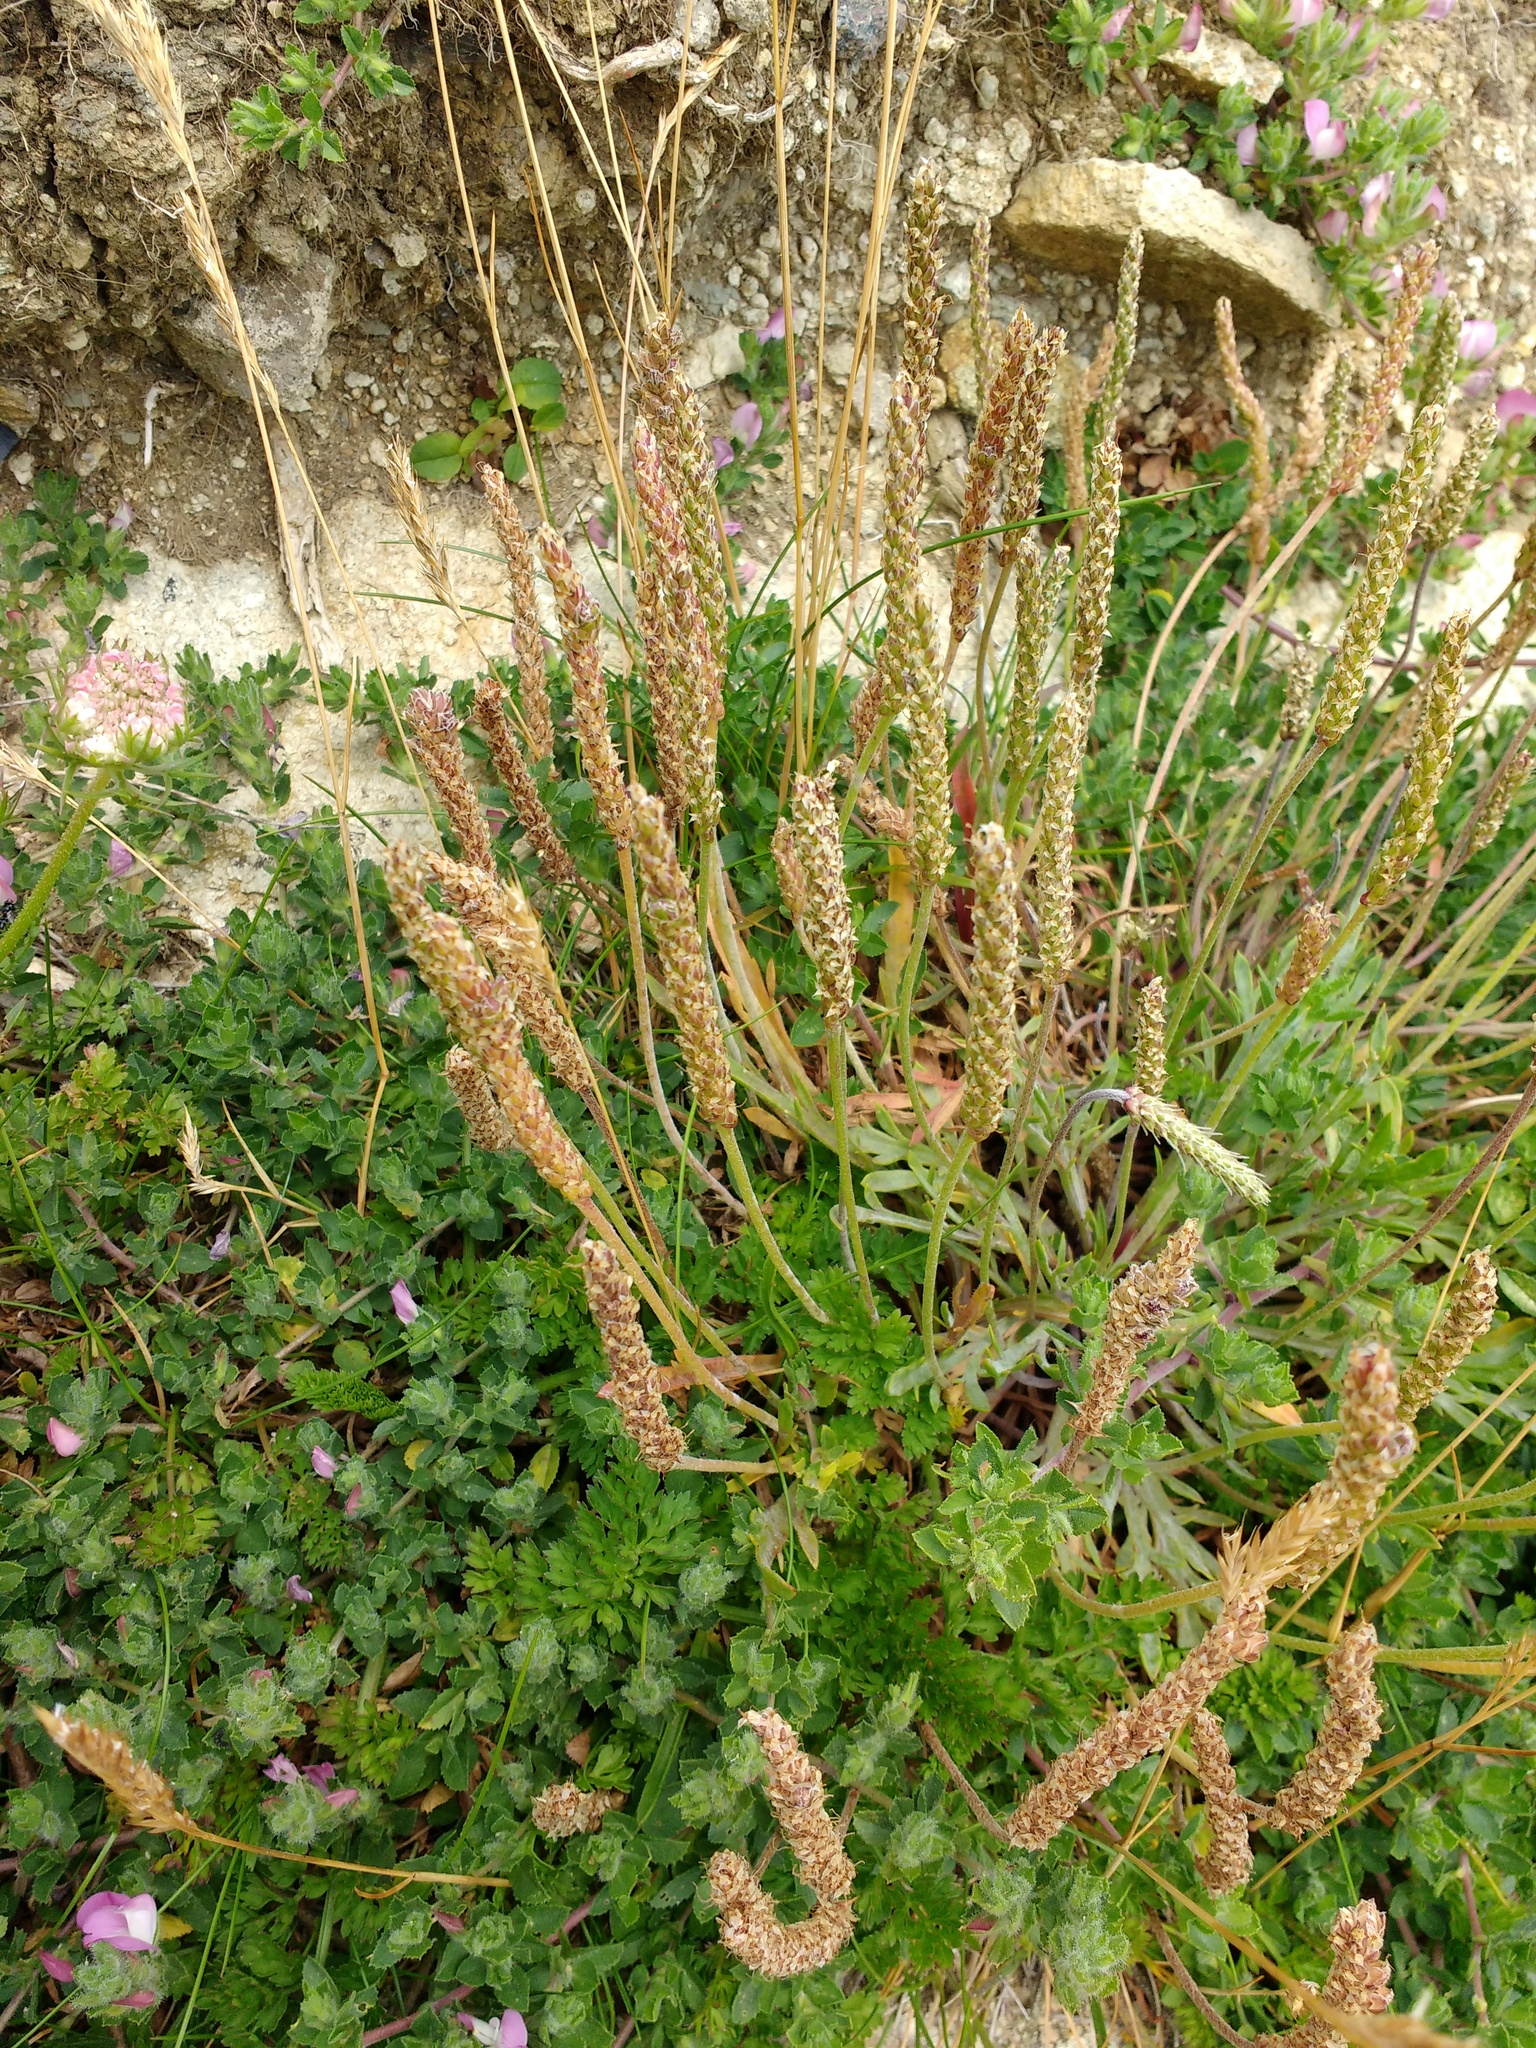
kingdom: Plantae
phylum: Tracheophyta
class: Magnoliopsida
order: Lamiales
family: Plantaginaceae
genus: Plantago
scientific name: Plantago coronopus
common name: Buck's-horn plantain
